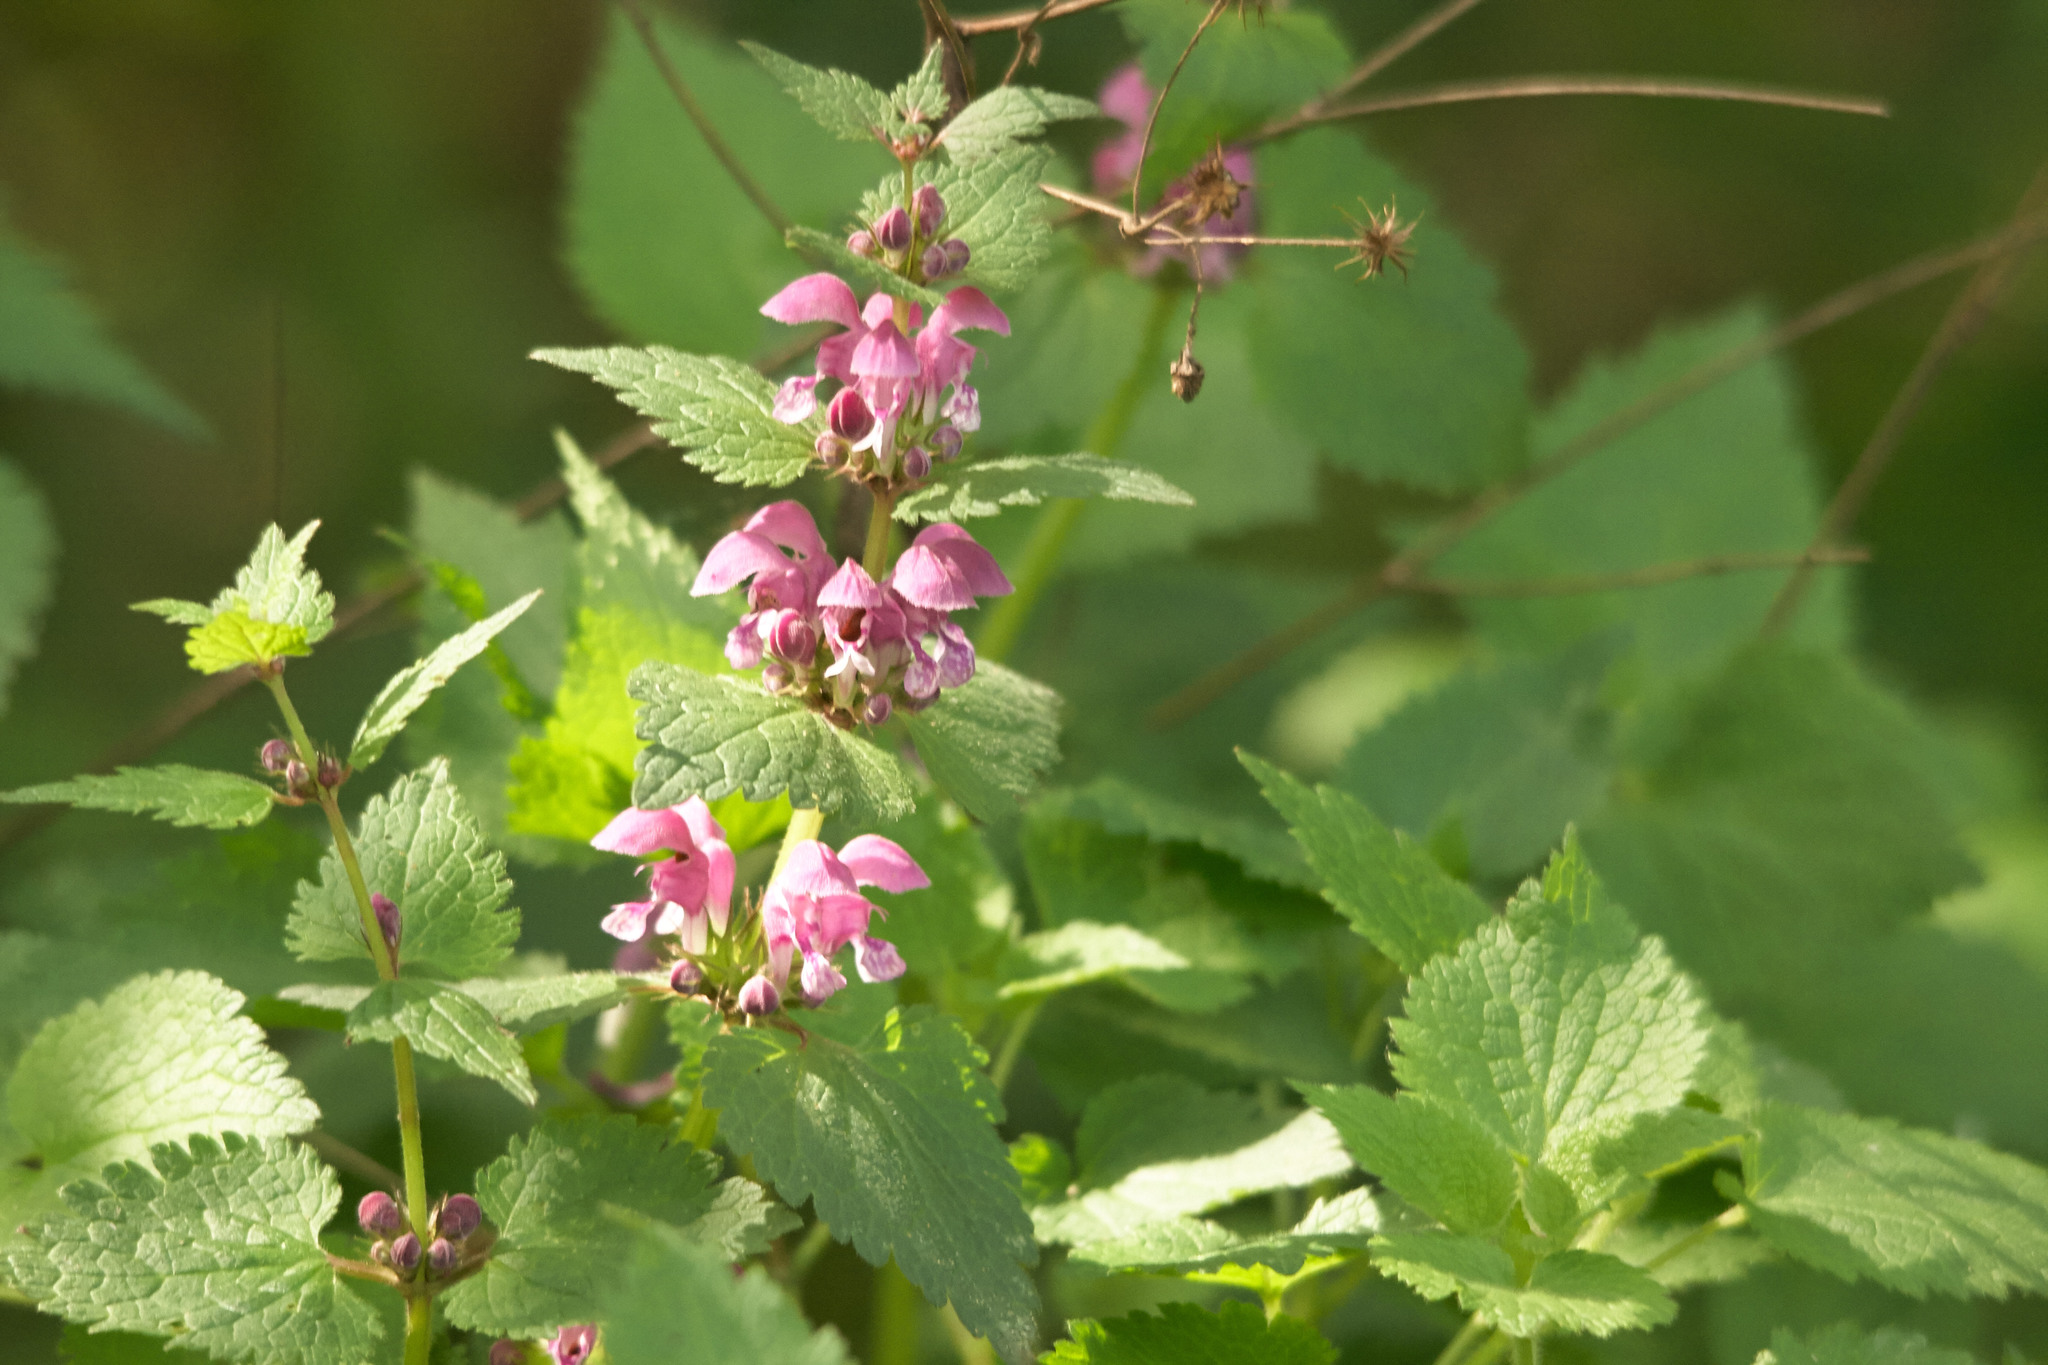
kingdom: Plantae
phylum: Tracheophyta
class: Magnoliopsida
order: Lamiales
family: Lamiaceae
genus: Lamium
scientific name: Lamium maculatum
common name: Spotted dead-nettle
